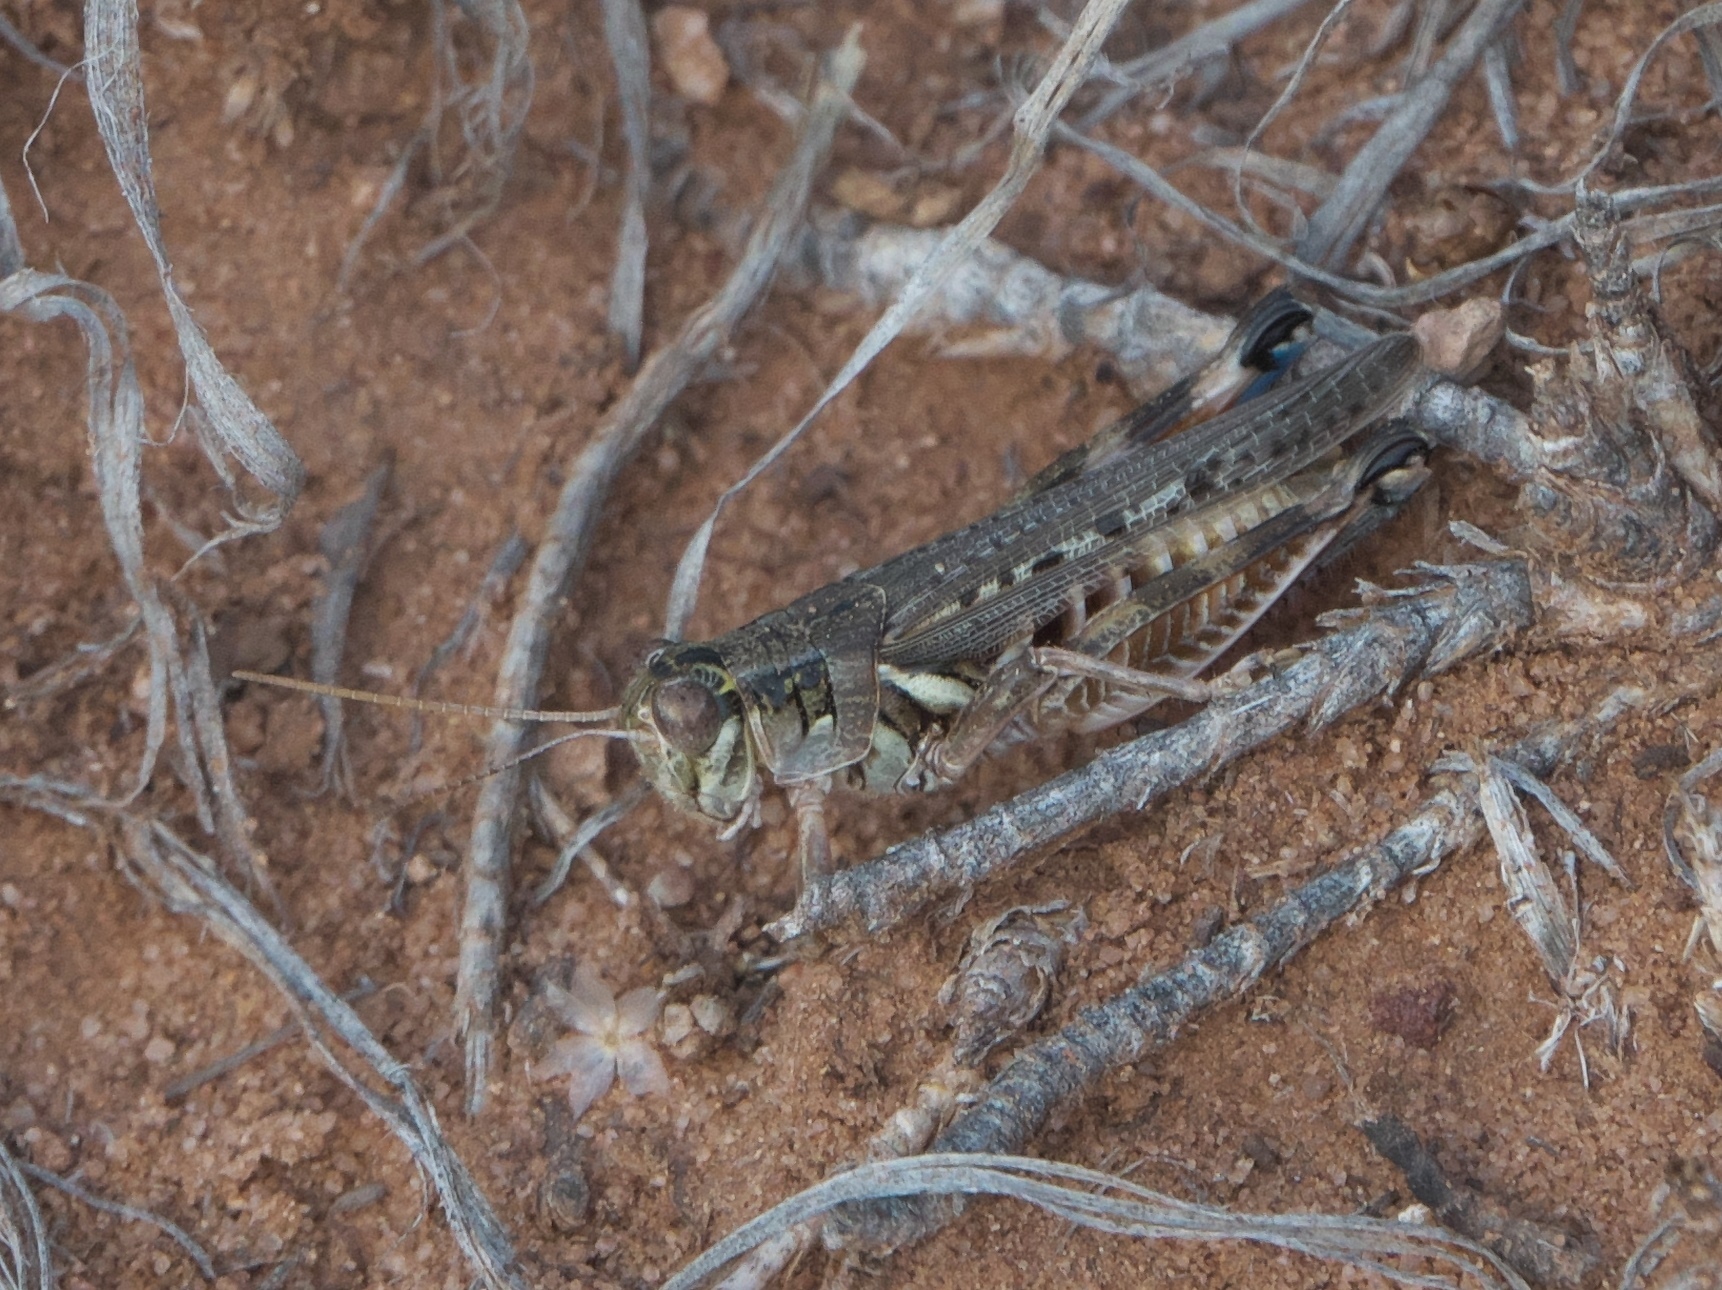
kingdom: Animalia
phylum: Arthropoda
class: Insecta
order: Orthoptera
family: Acrididae
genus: Melanoplus
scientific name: Melanoplus occidentalis
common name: Flabellate grasshopper
